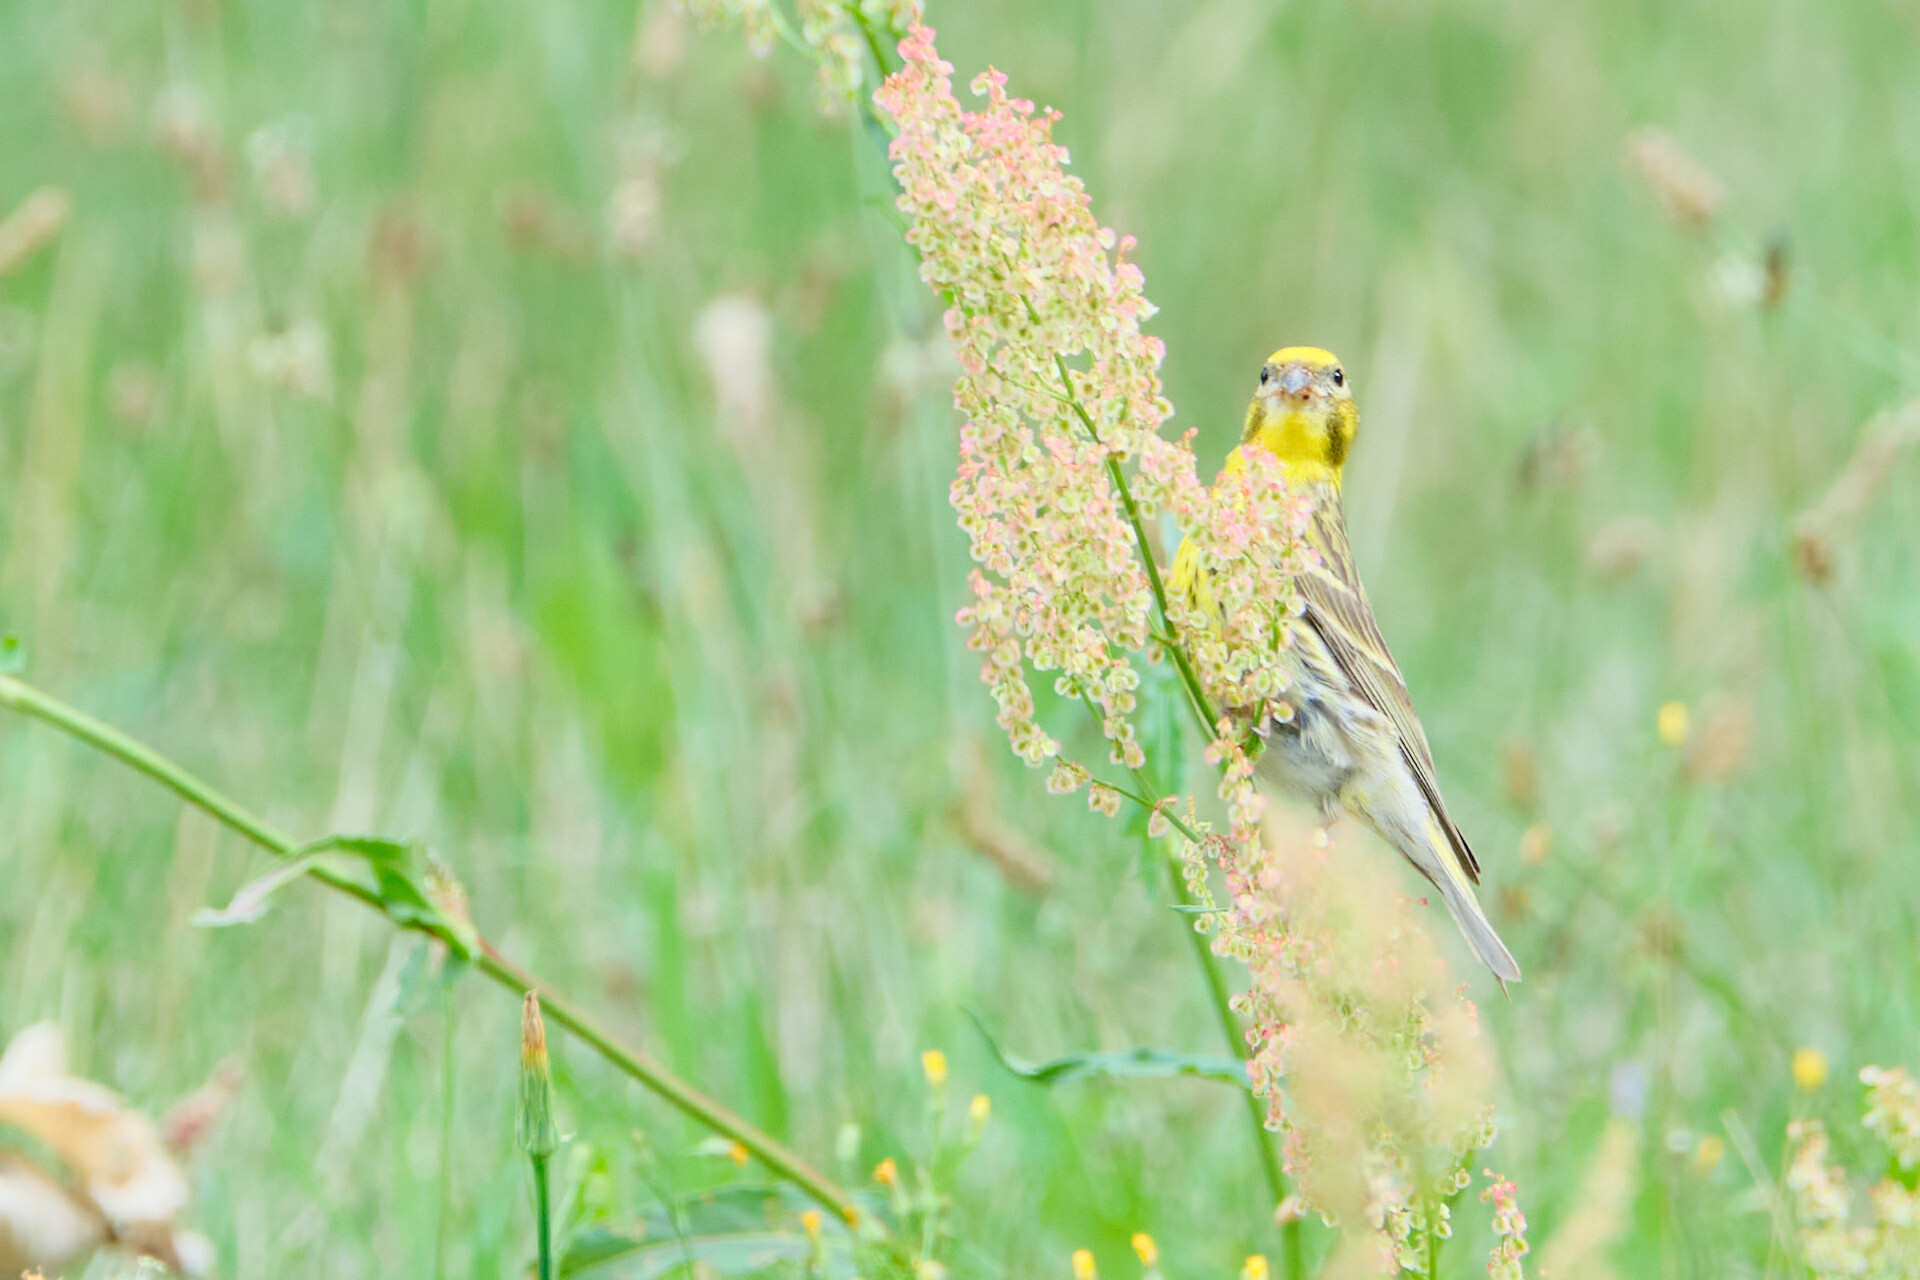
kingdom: Animalia
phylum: Chordata
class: Aves
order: Passeriformes
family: Fringillidae
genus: Serinus
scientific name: Serinus serinus
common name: European serin
